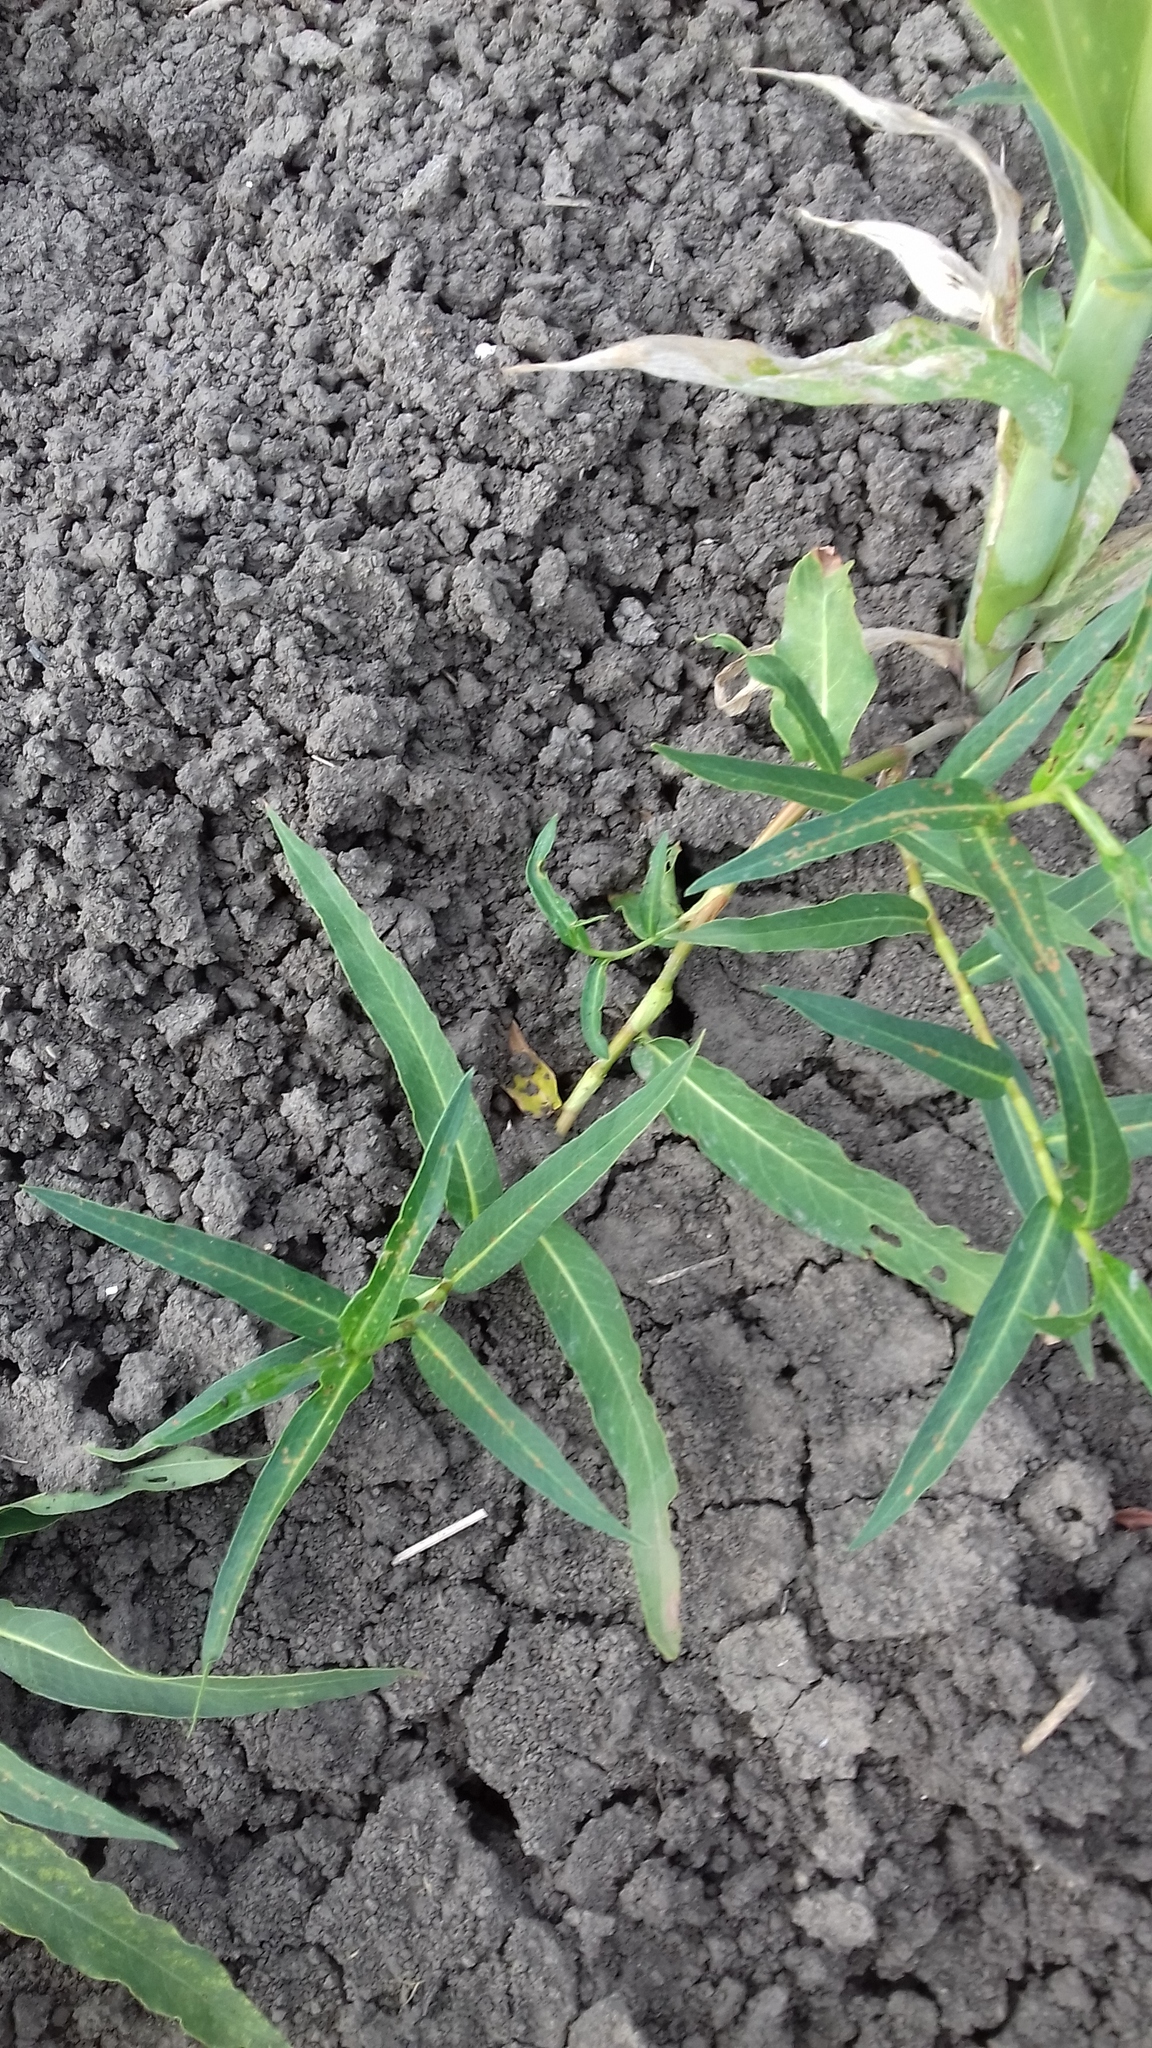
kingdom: Plantae
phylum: Tracheophyta
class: Magnoliopsida
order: Caryophyllales
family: Polygonaceae
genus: Persicaria
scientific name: Persicaria amphibia
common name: Amphibious bistort
